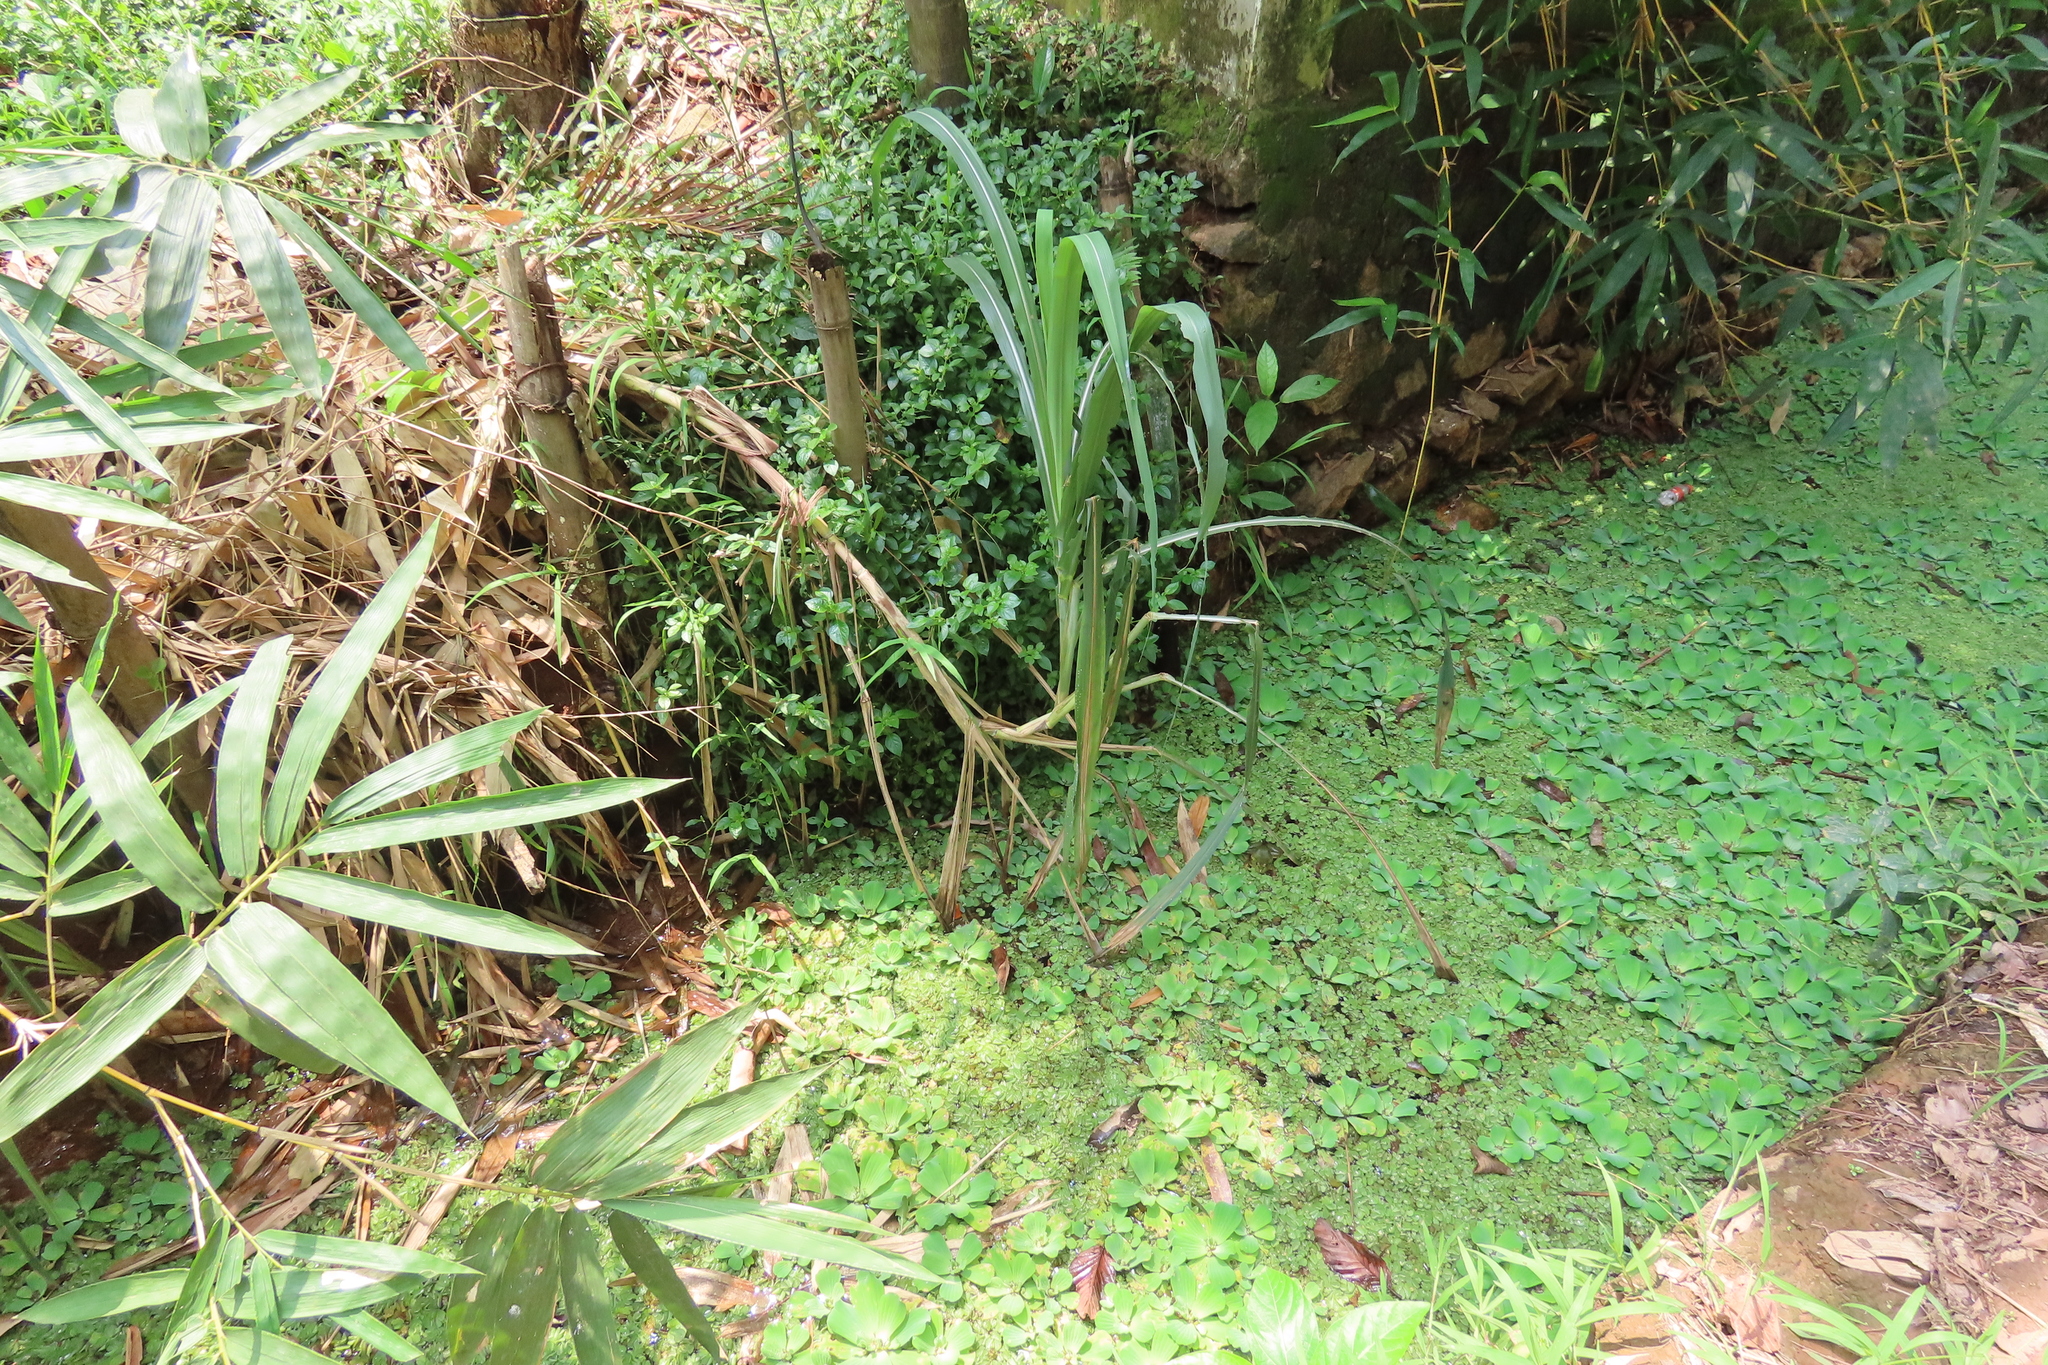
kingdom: Plantae
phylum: Tracheophyta
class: Liliopsida
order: Alismatales
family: Araceae
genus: Pistia
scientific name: Pistia stratiotes
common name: Water lettuce
